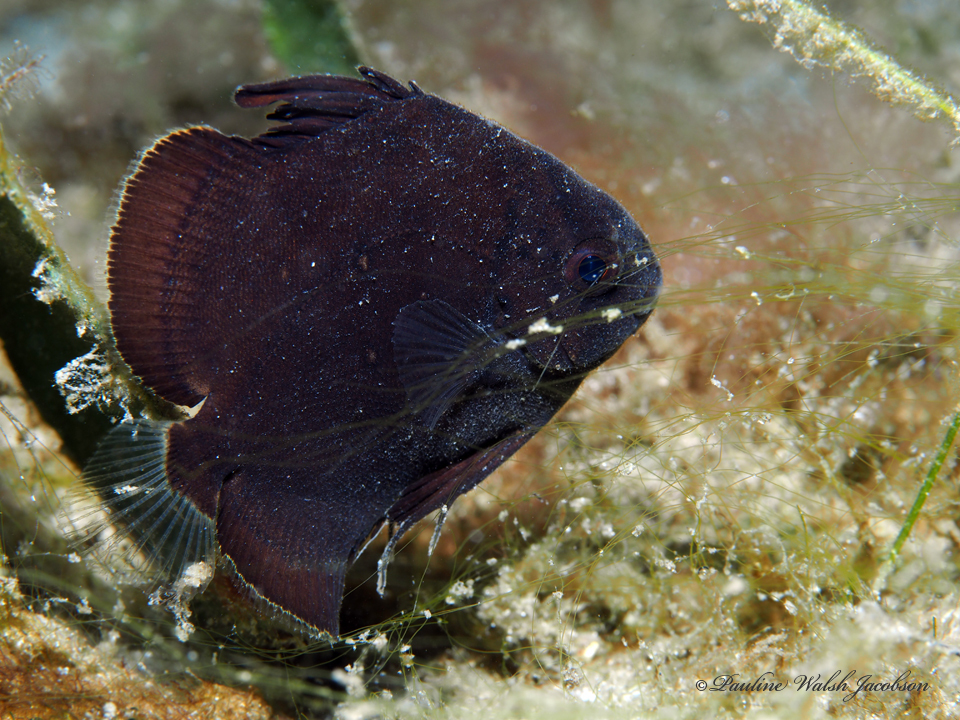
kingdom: Animalia
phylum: Chordata
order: Perciformes
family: Ephippidae
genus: Chaetodipterus
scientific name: Chaetodipterus faber
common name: Ocean cobbler
